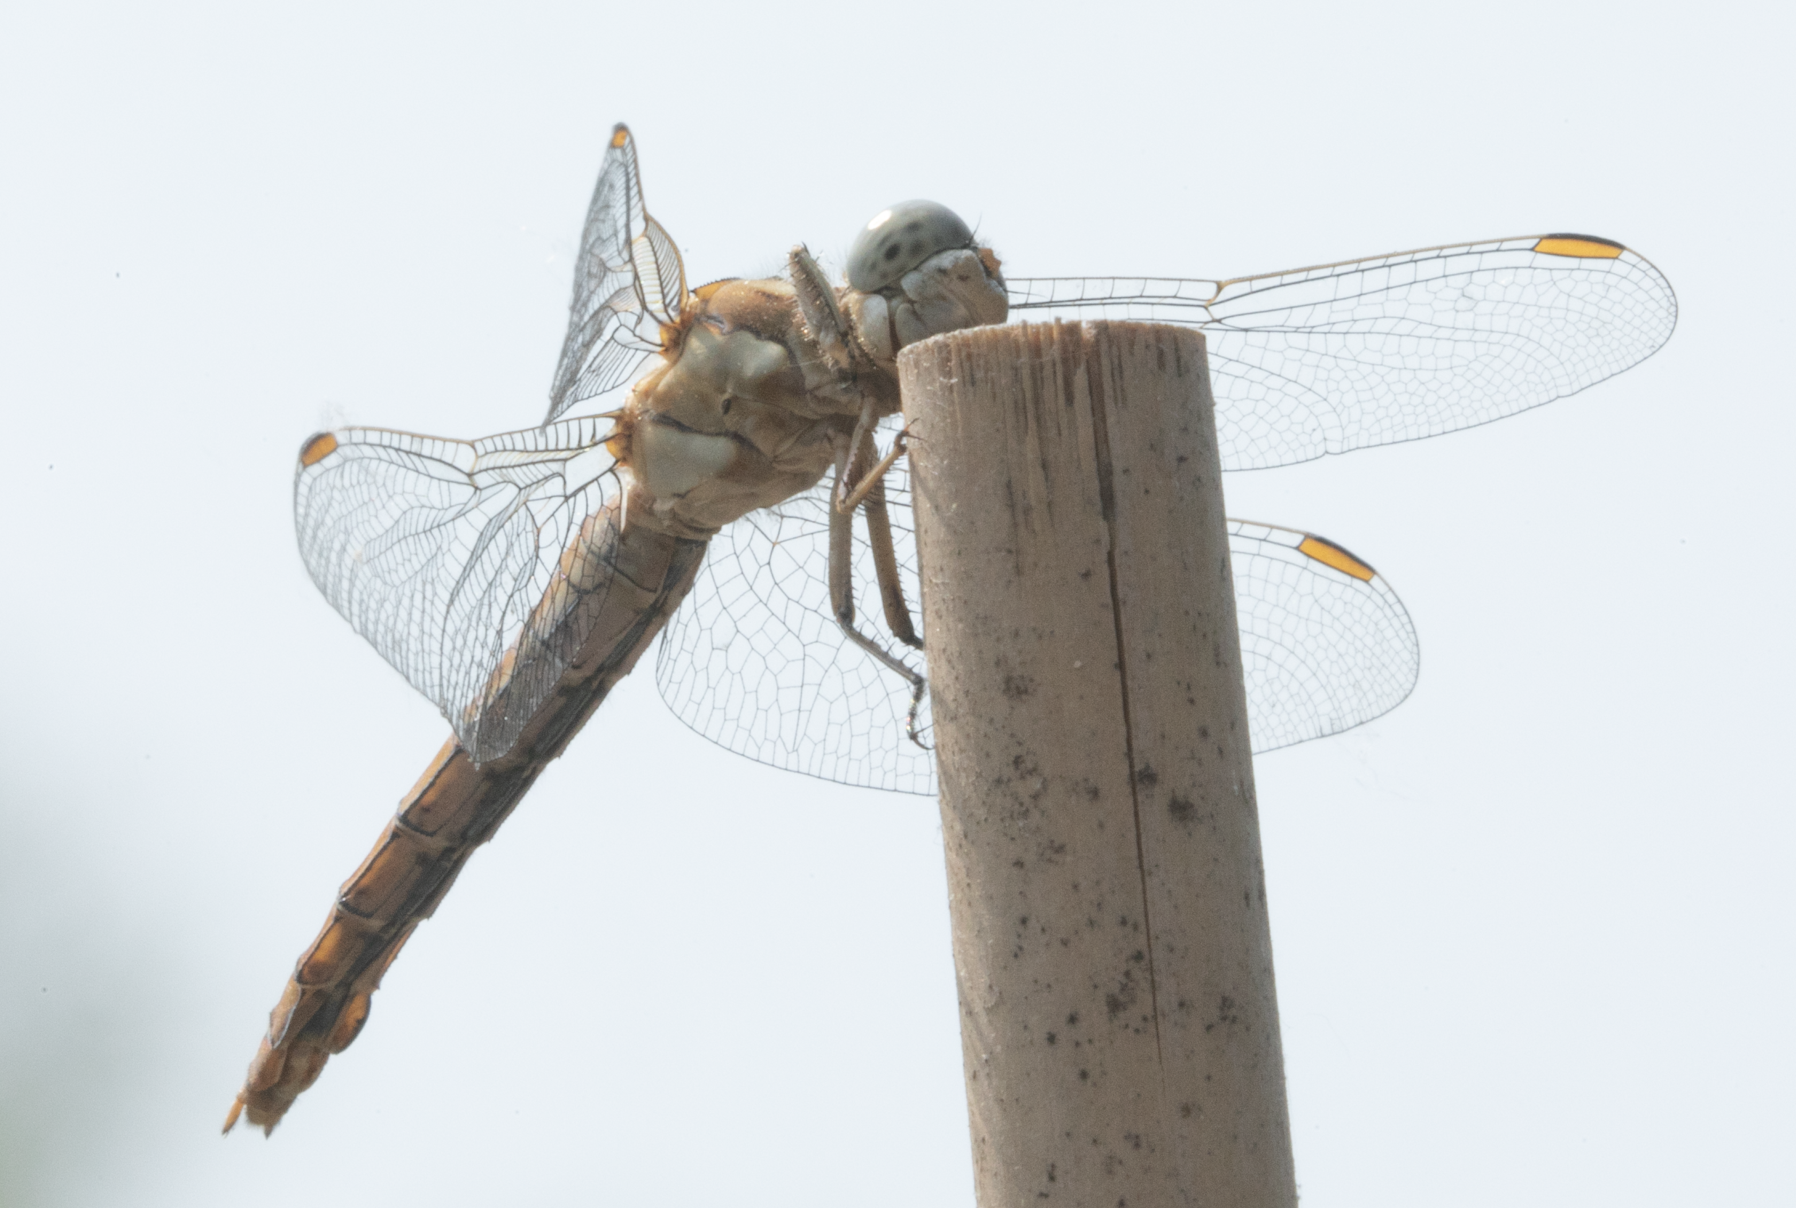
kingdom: Animalia
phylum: Arthropoda
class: Insecta
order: Odonata
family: Libellulidae
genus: Orthetrum
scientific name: Orthetrum brunneum
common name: Southern skimmer
